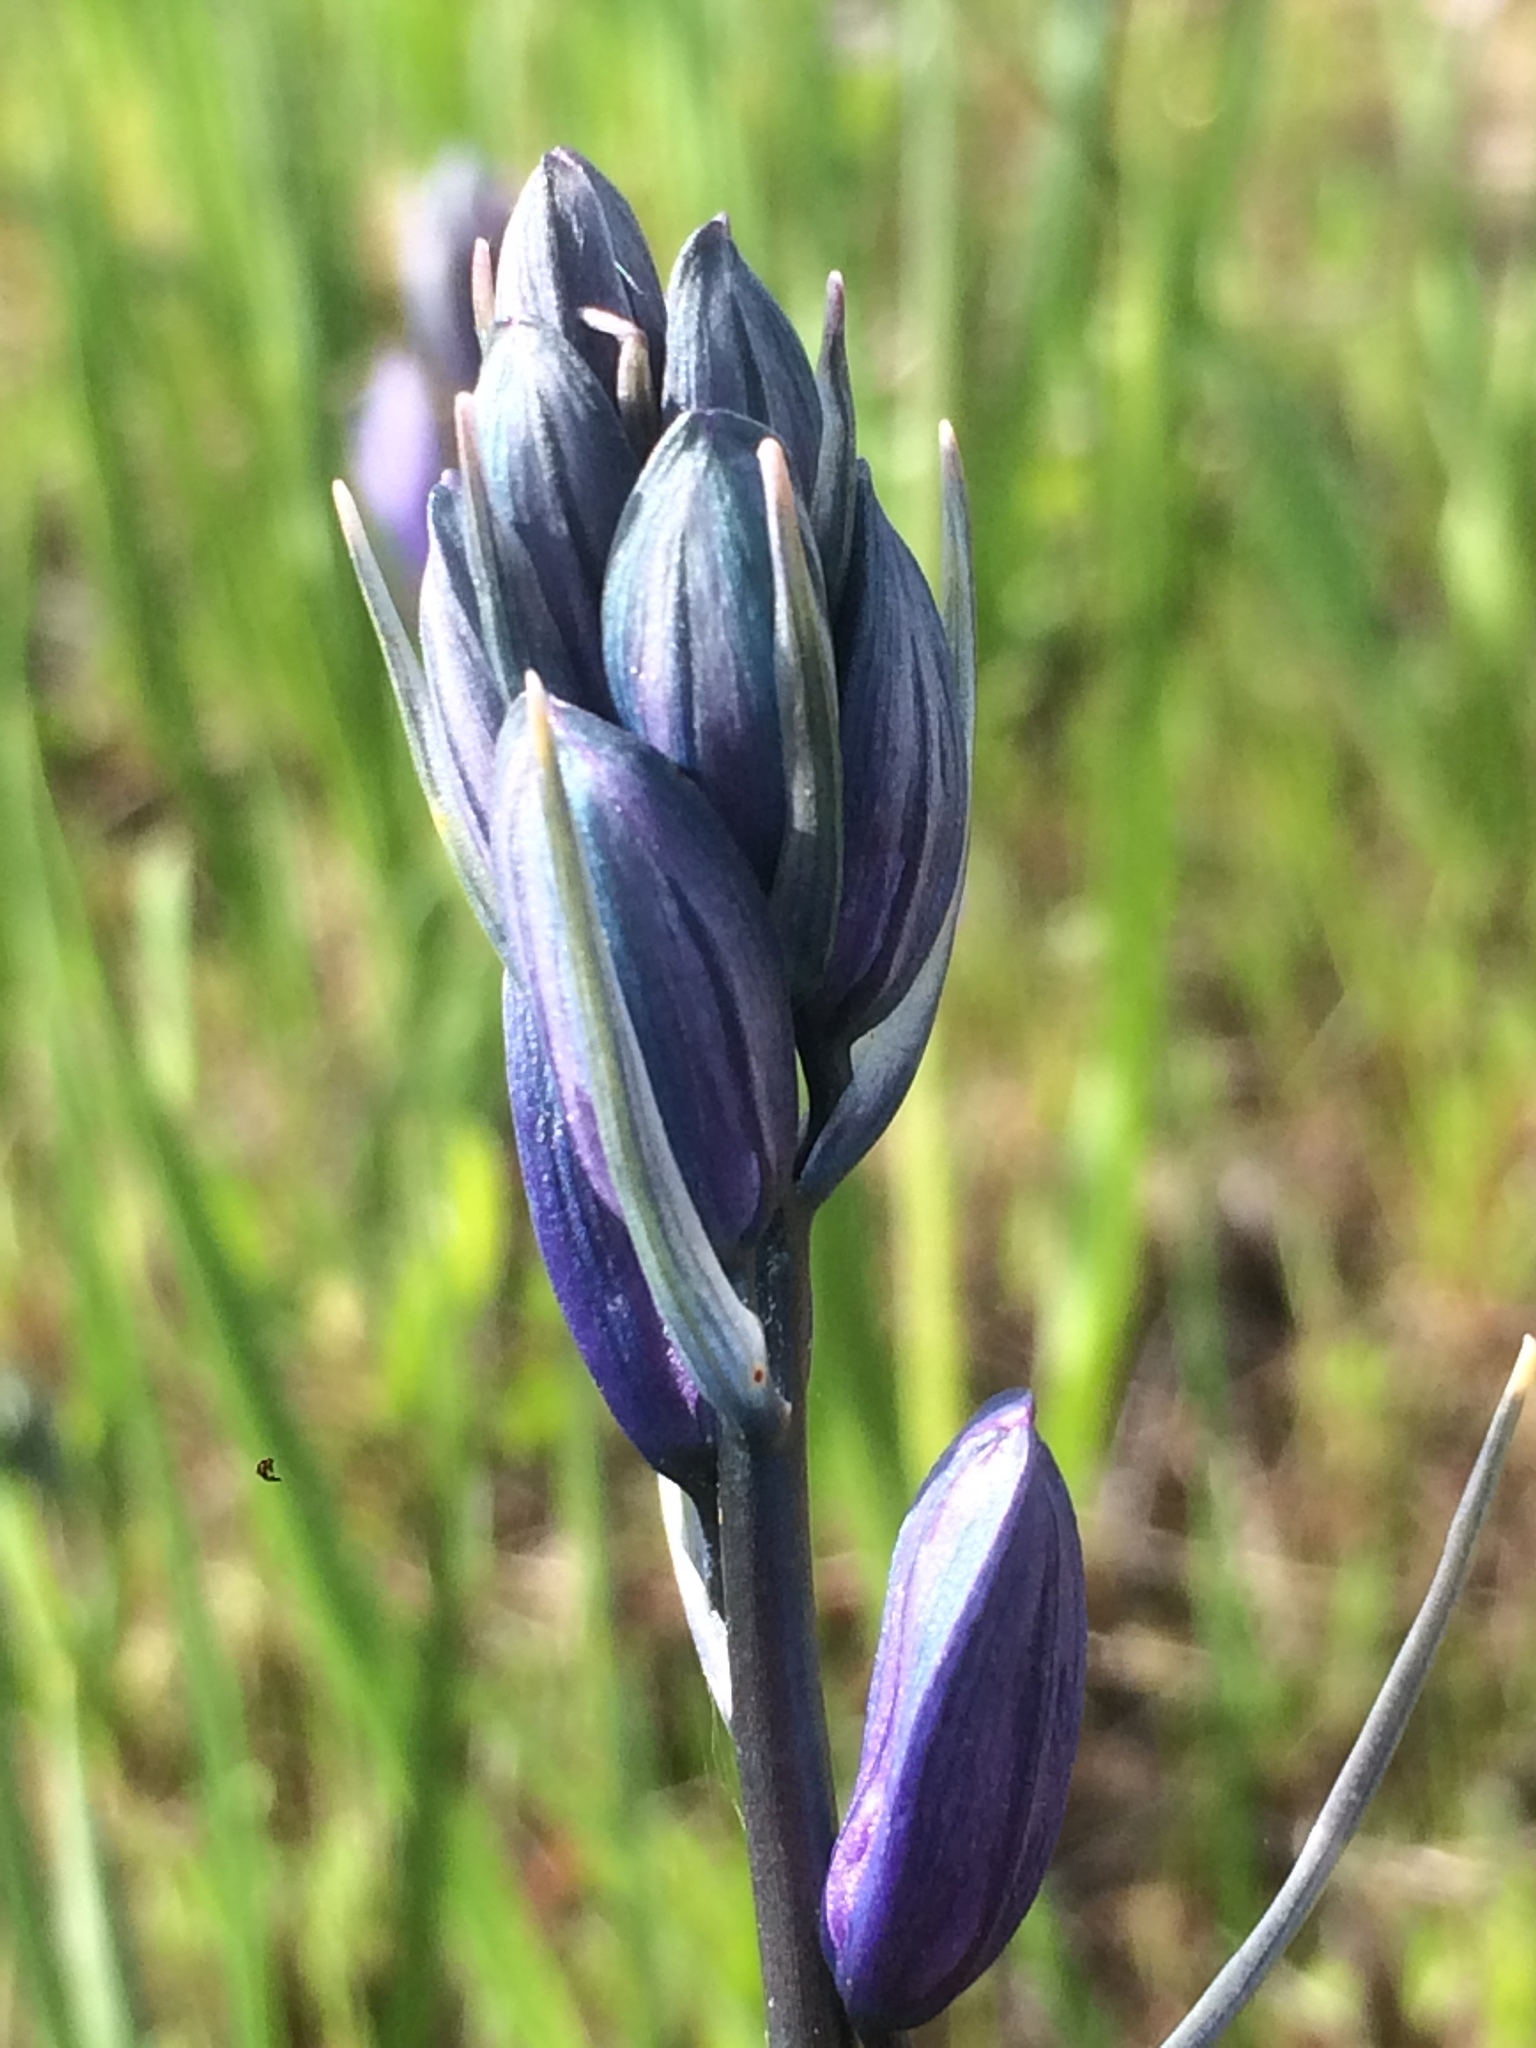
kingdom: Plantae
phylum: Tracheophyta
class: Liliopsida
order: Asparagales
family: Asparagaceae
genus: Camassia
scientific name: Camassia quamash
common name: Common camas
